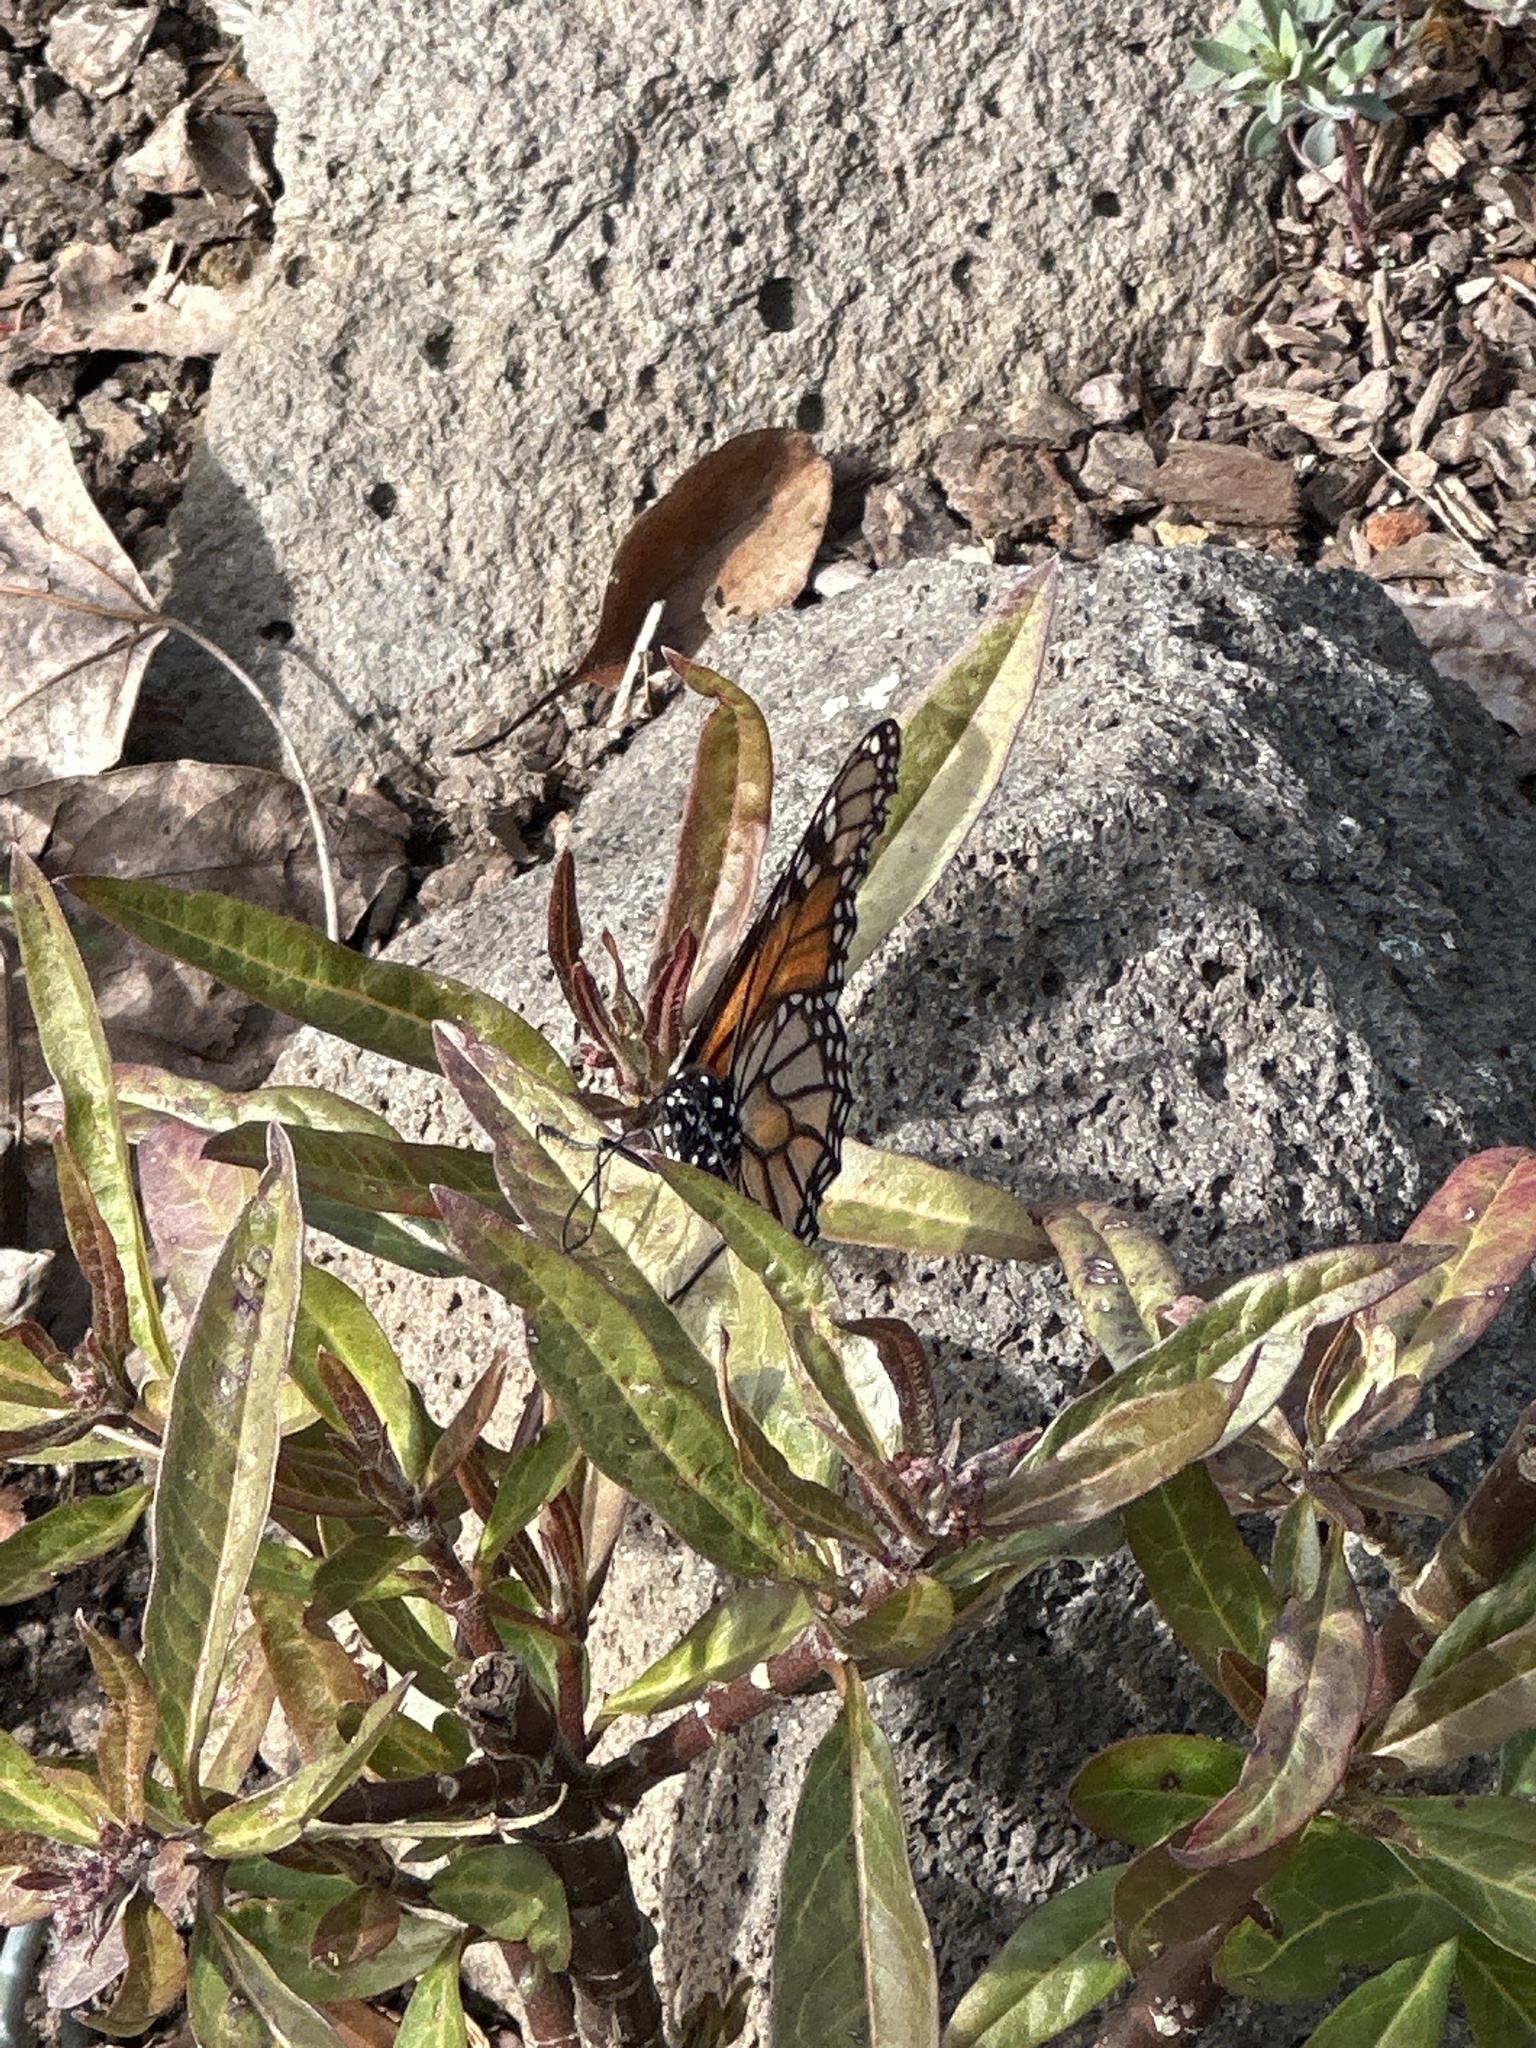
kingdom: Animalia
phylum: Arthropoda
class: Insecta
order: Lepidoptera
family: Nymphalidae
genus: Danaus
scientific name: Danaus plexippus
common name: Monarch
